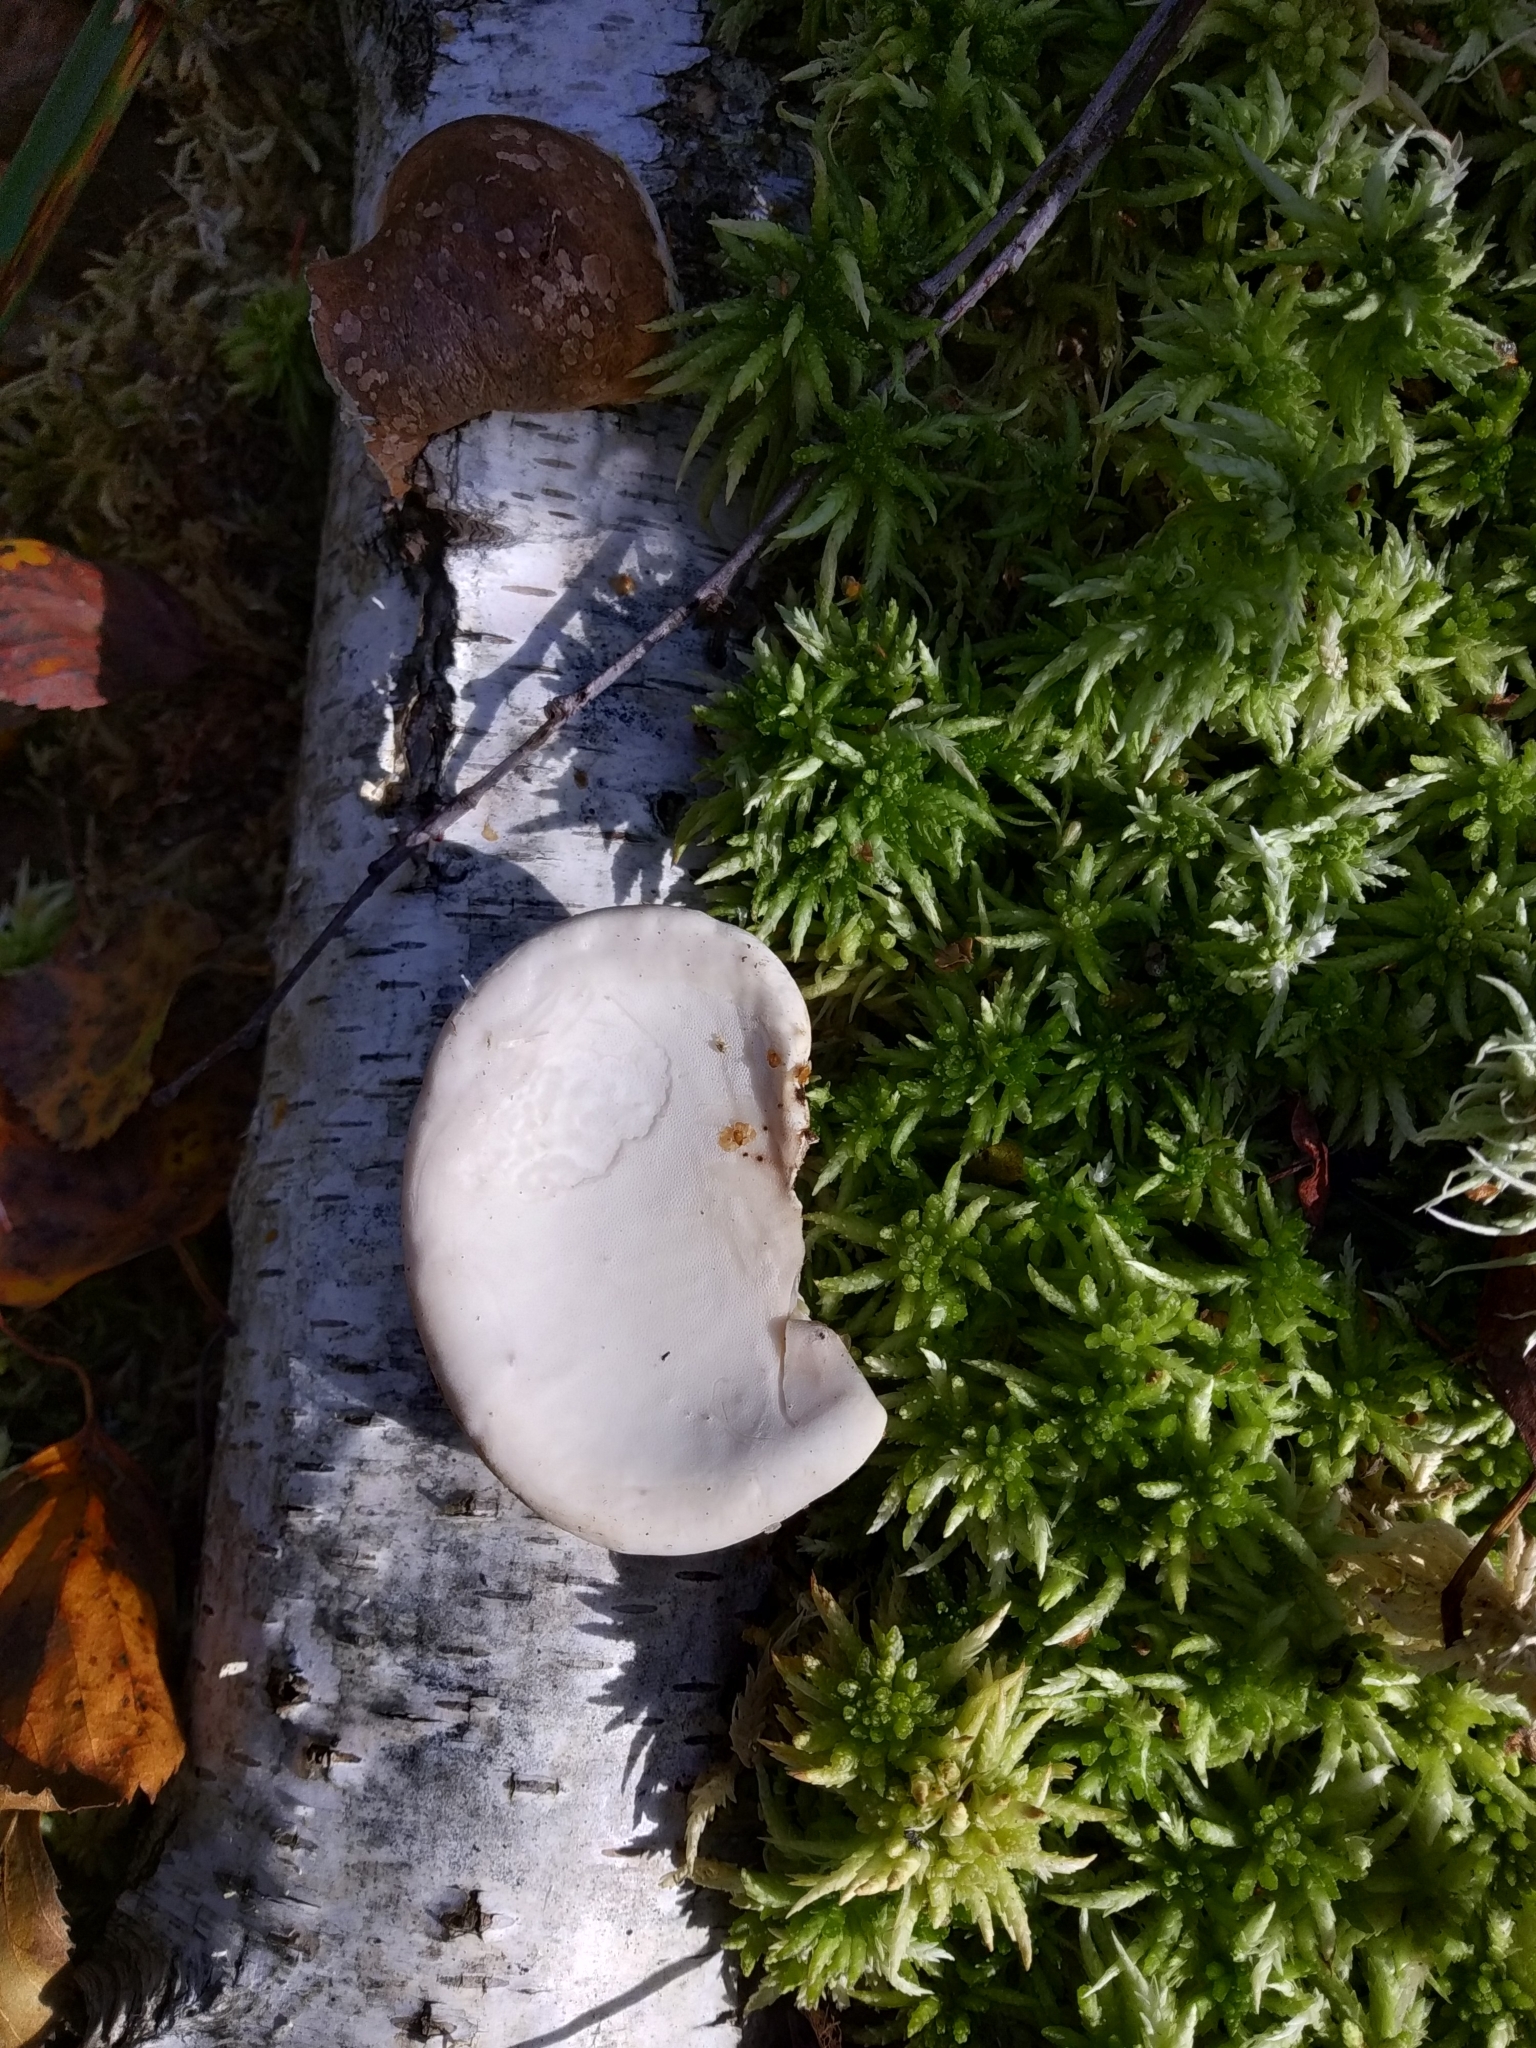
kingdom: Fungi
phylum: Basidiomycota
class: Agaricomycetes
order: Polyporales
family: Fomitopsidaceae
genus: Fomitopsis
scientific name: Fomitopsis betulina
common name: Birch polypore
